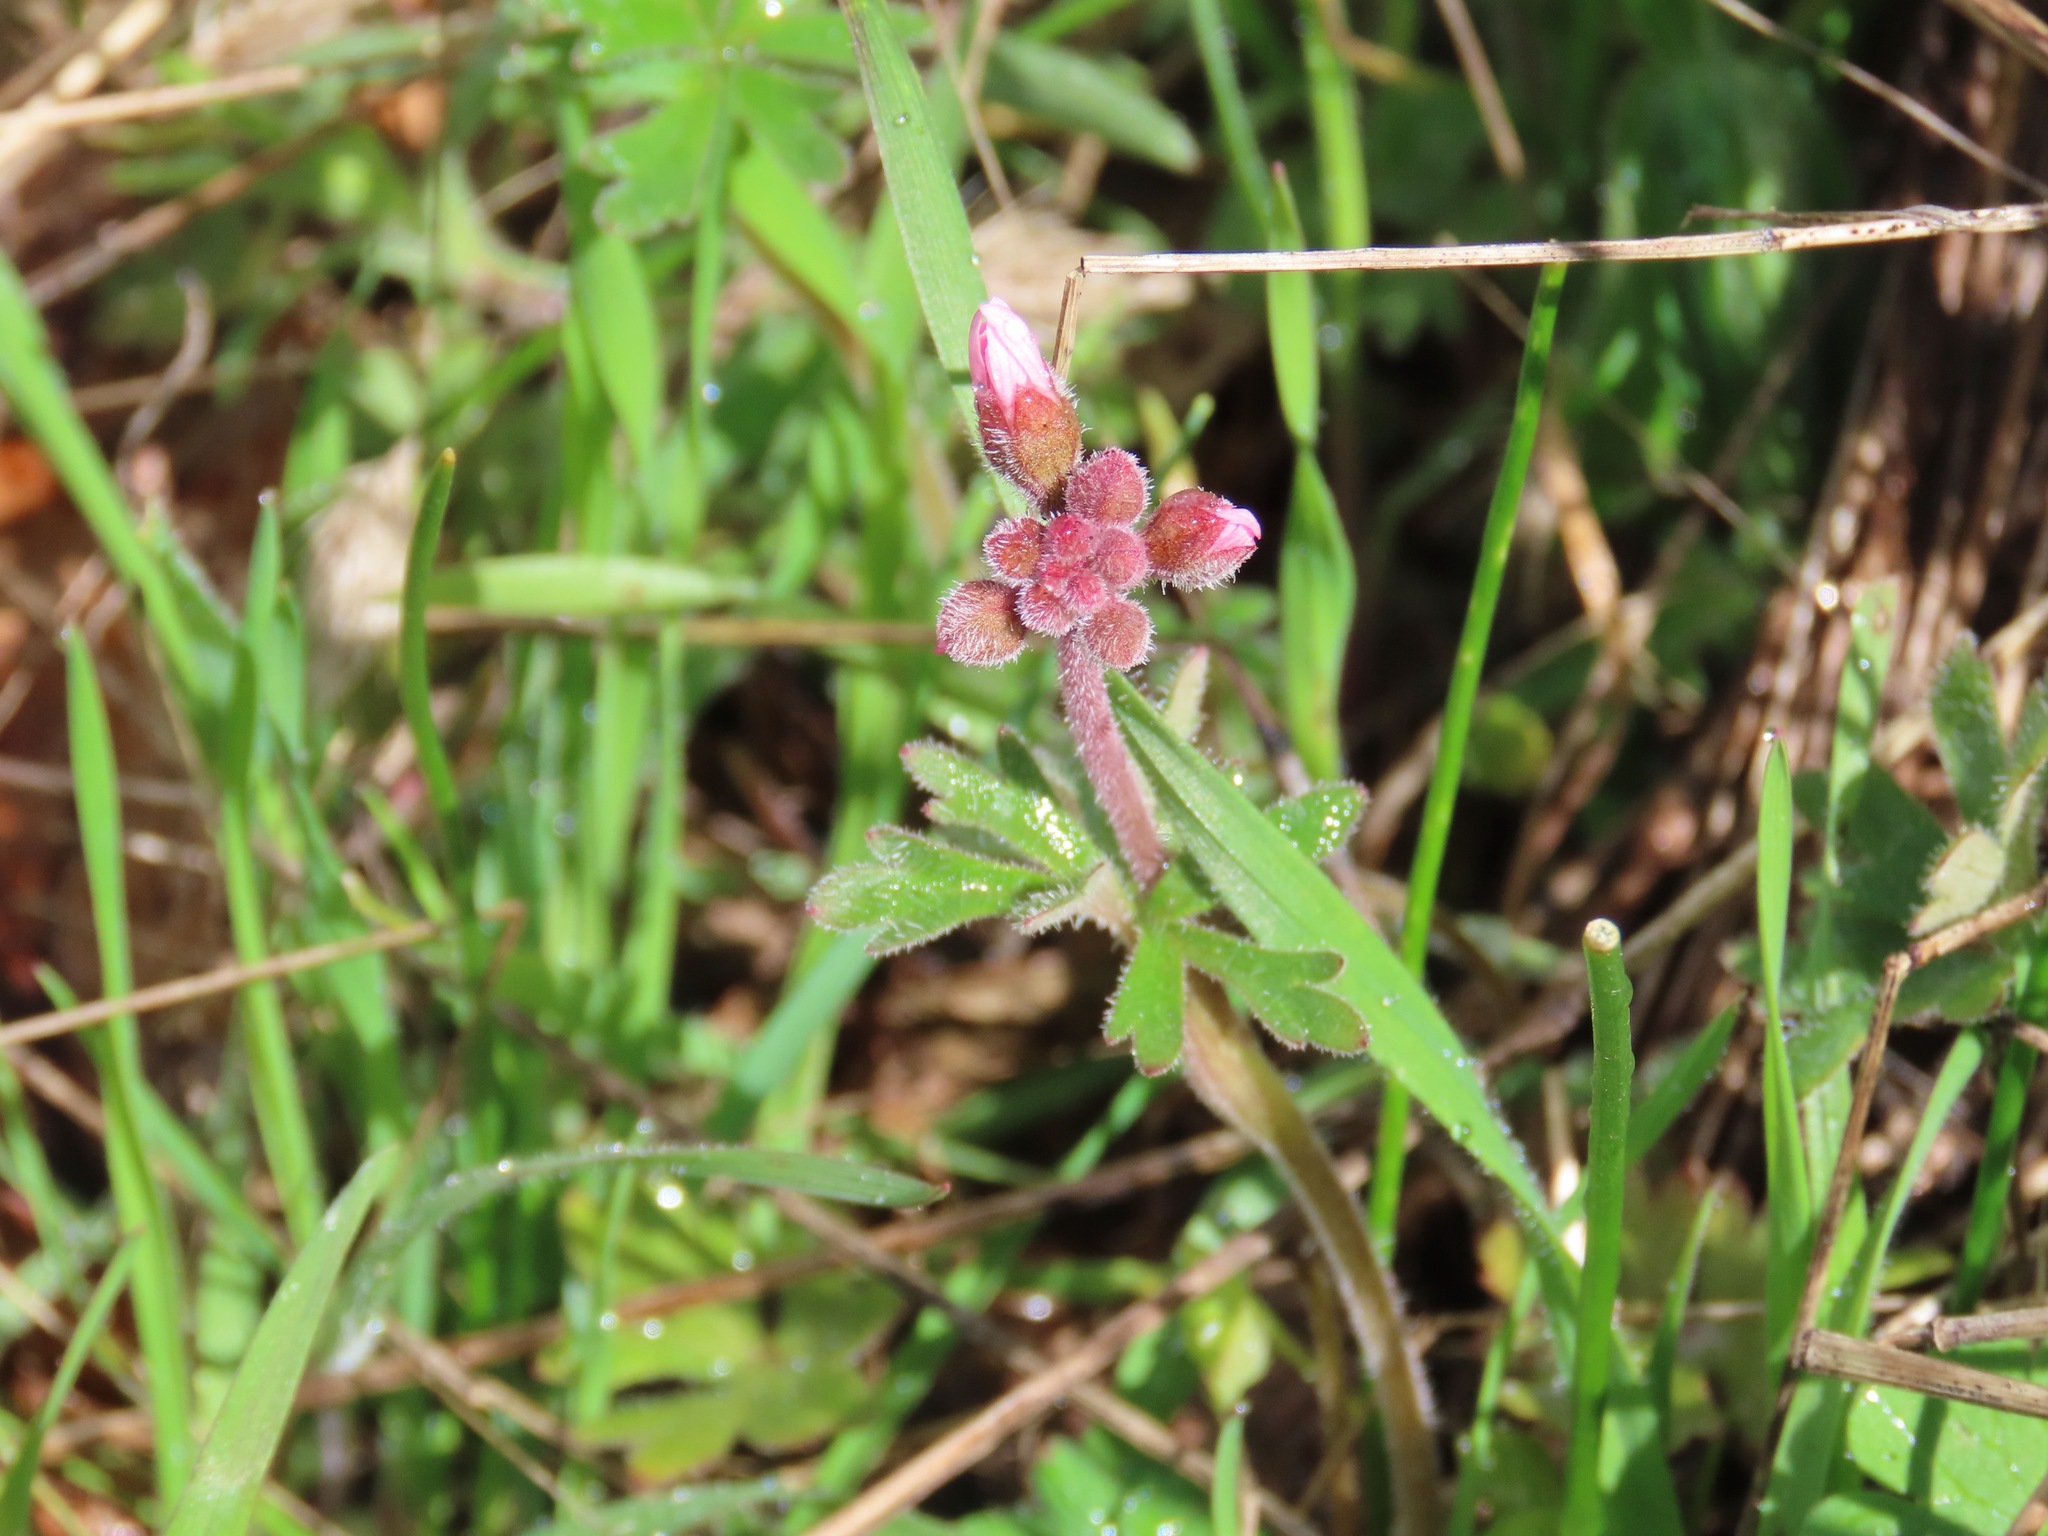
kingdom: Plantae
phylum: Tracheophyta
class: Magnoliopsida
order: Saxifragales
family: Saxifragaceae
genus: Lithophragma
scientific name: Lithophragma parviflorum
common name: Small-flowered fringe-cup
